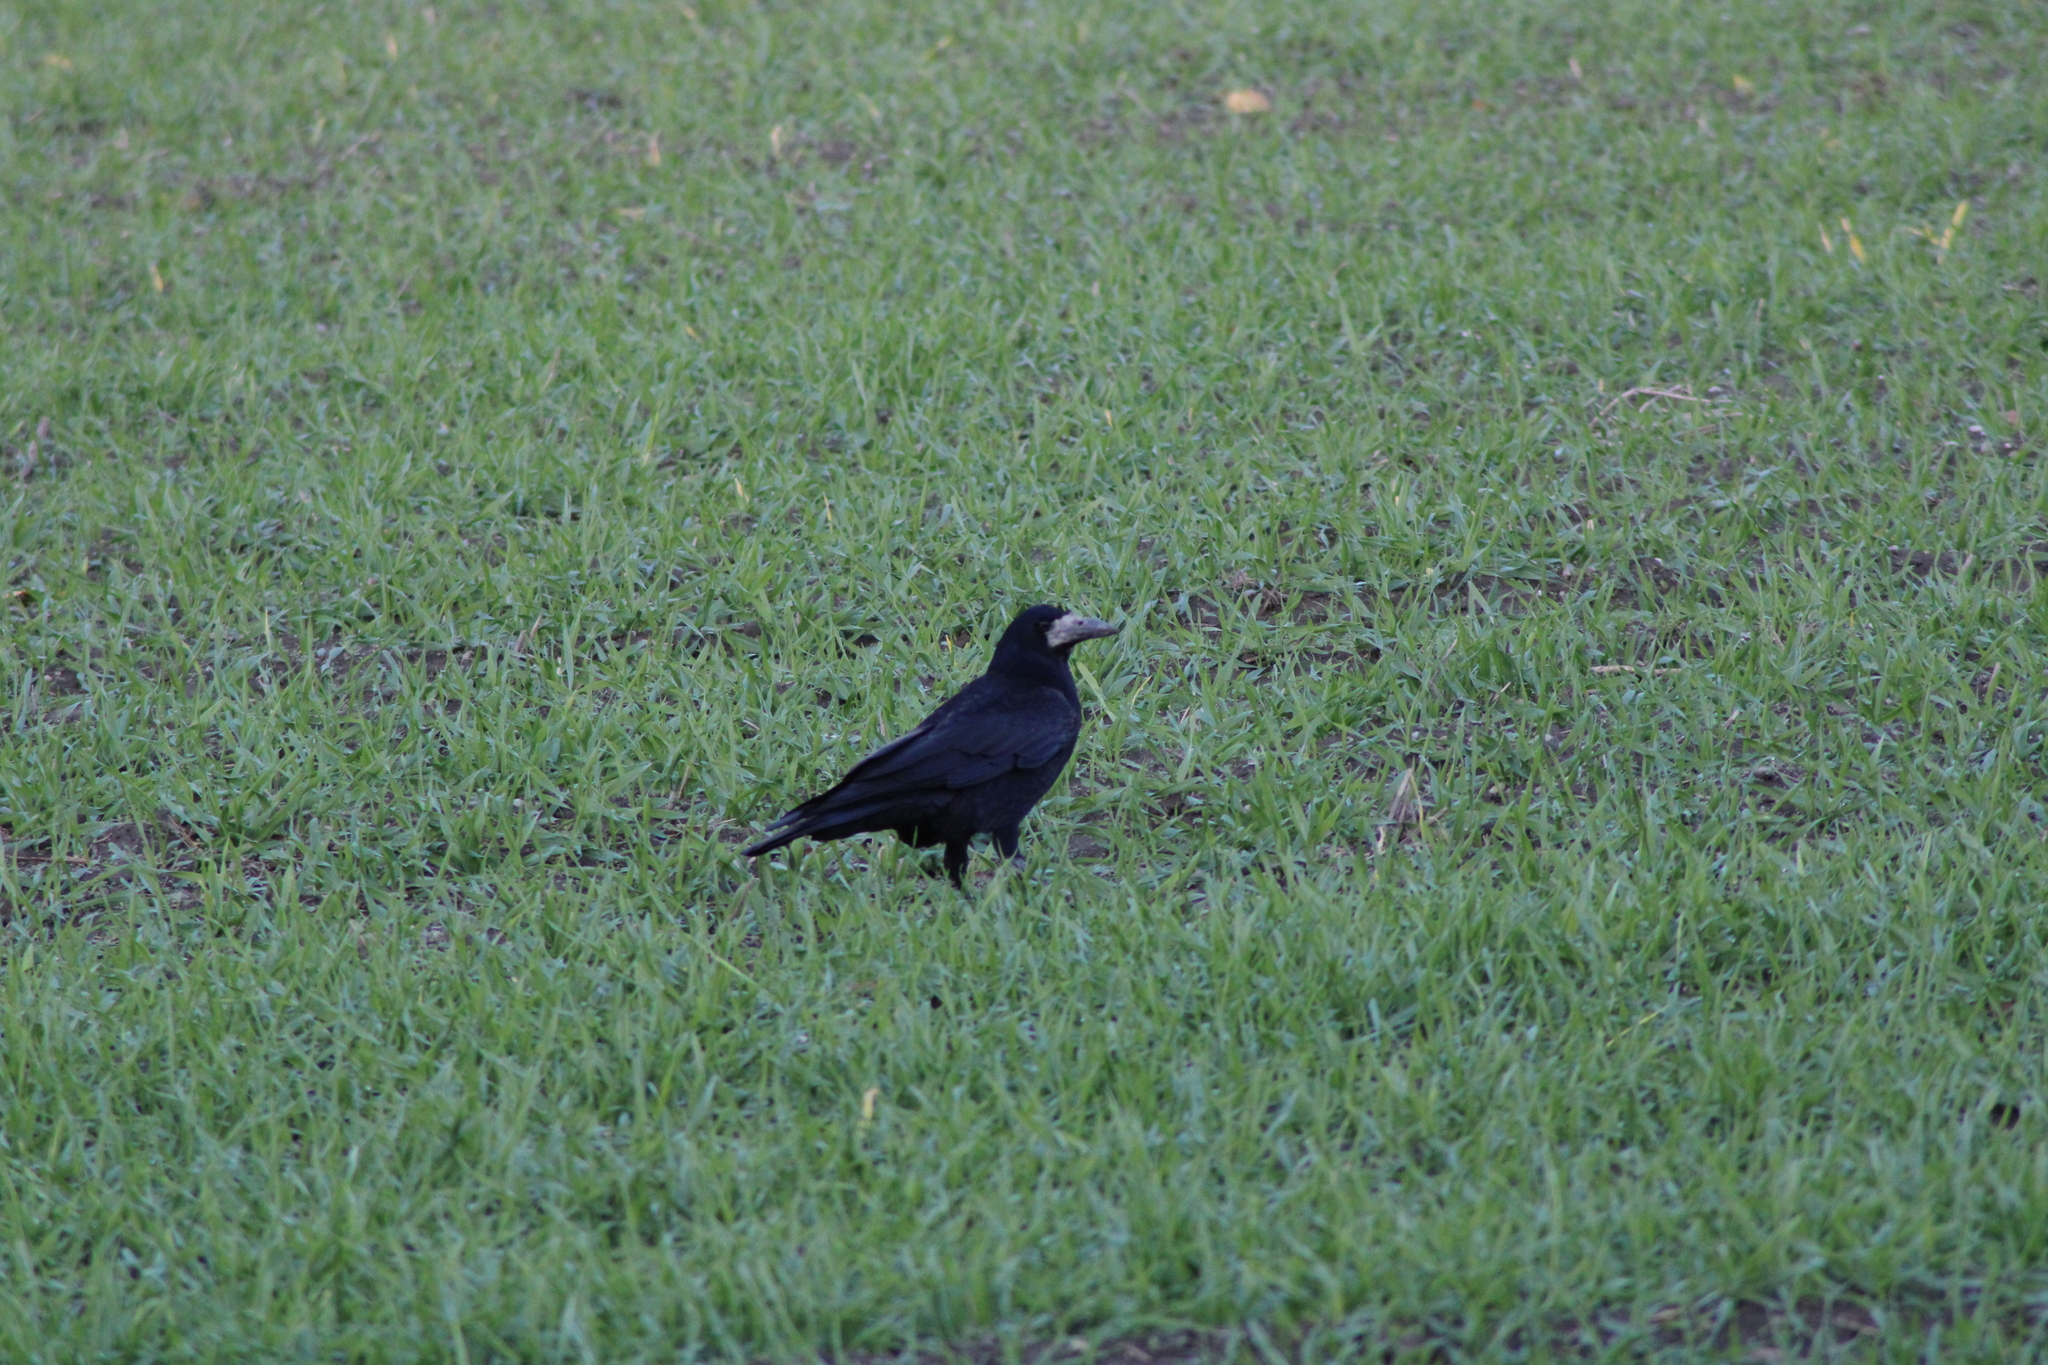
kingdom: Animalia
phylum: Chordata
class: Aves
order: Passeriformes
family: Corvidae
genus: Corvus
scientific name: Corvus frugilegus
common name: Rook
